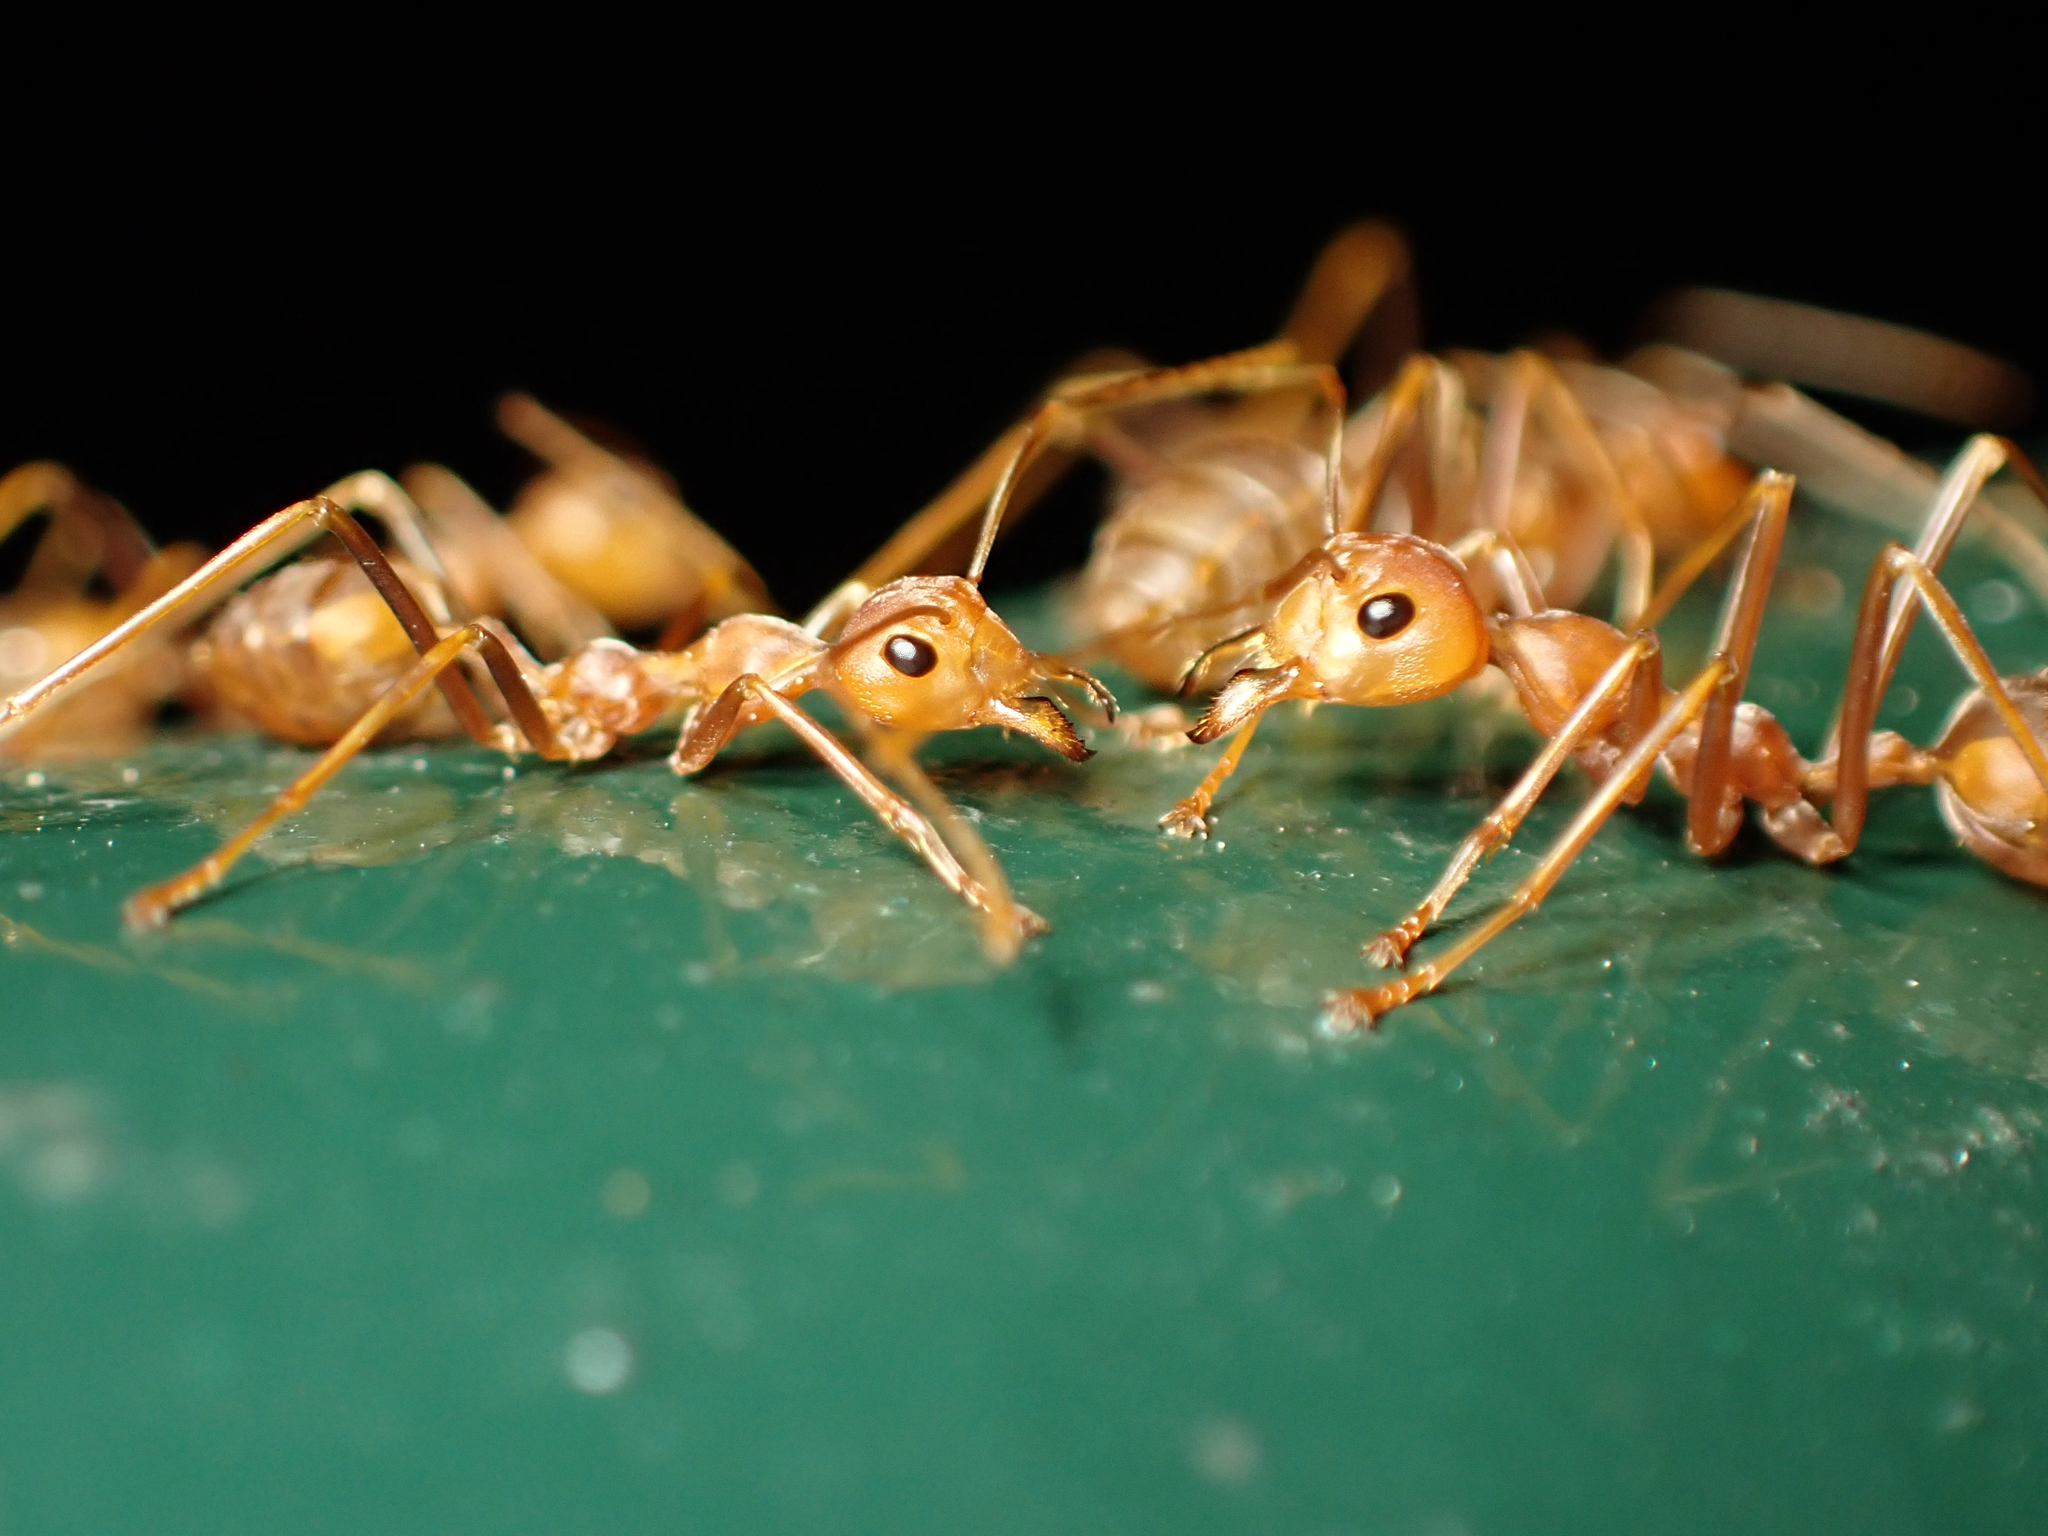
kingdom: Animalia
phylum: Arthropoda
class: Insecta
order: Hymenoptera
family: Formicidae
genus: Oecophylla
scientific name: Oecophylla smaragdina
